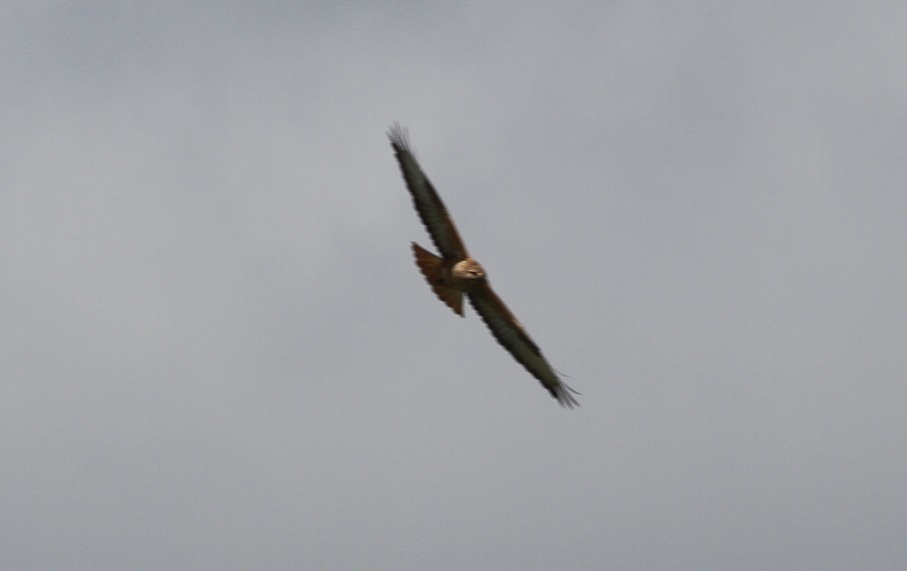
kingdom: Animalia
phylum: Chordata
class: Aves
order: Accipitriformes
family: Accipitridae
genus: Buteo
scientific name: Buteo rufinus
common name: Long-legged buzzard
